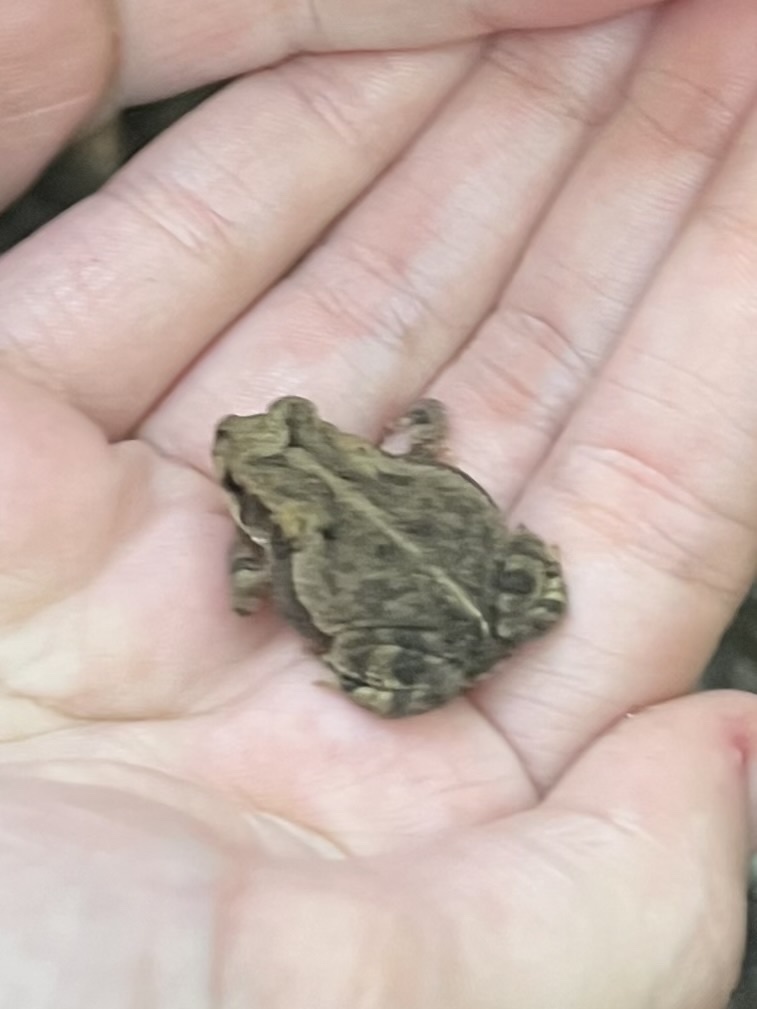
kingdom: Animalia
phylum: Chordata
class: Amphibia
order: Anura
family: Bufonidae
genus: Incilius
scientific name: Incilius nebulifer
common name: Gulf coast toad
